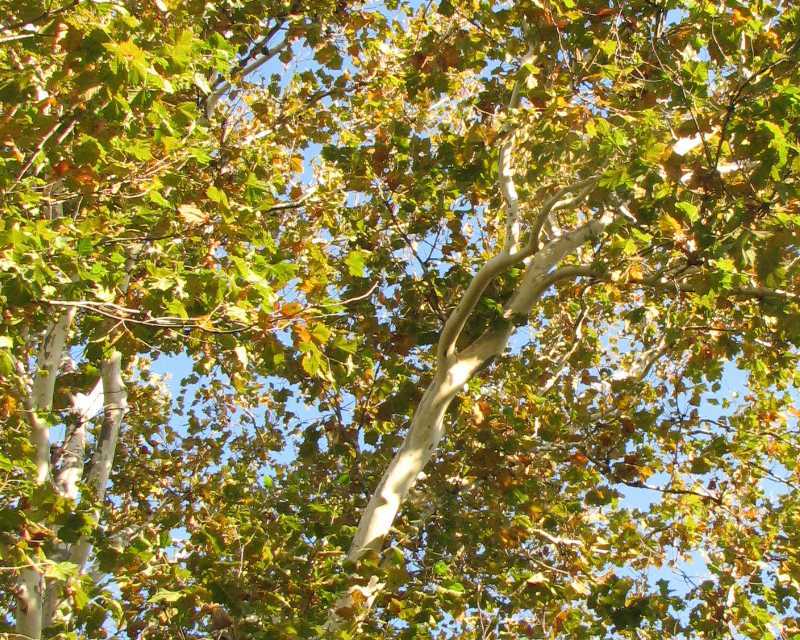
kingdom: Plantae
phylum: Tracheophyta
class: Magnoliopsida
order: Proteales
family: Platanaceae
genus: Platanus
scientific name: Platanus occidentalis
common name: American sycamore
